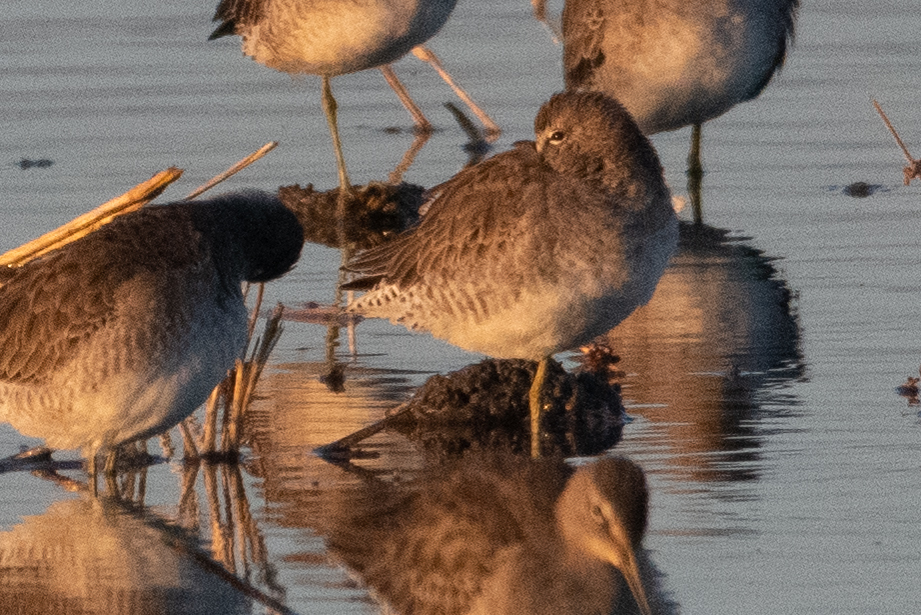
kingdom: Animalia
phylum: Chordata
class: Aves
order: Charadriiformes
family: Scolopacidae
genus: Limnodromus
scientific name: Limnodromus scolopaceus
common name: Long-billed dowitcher
